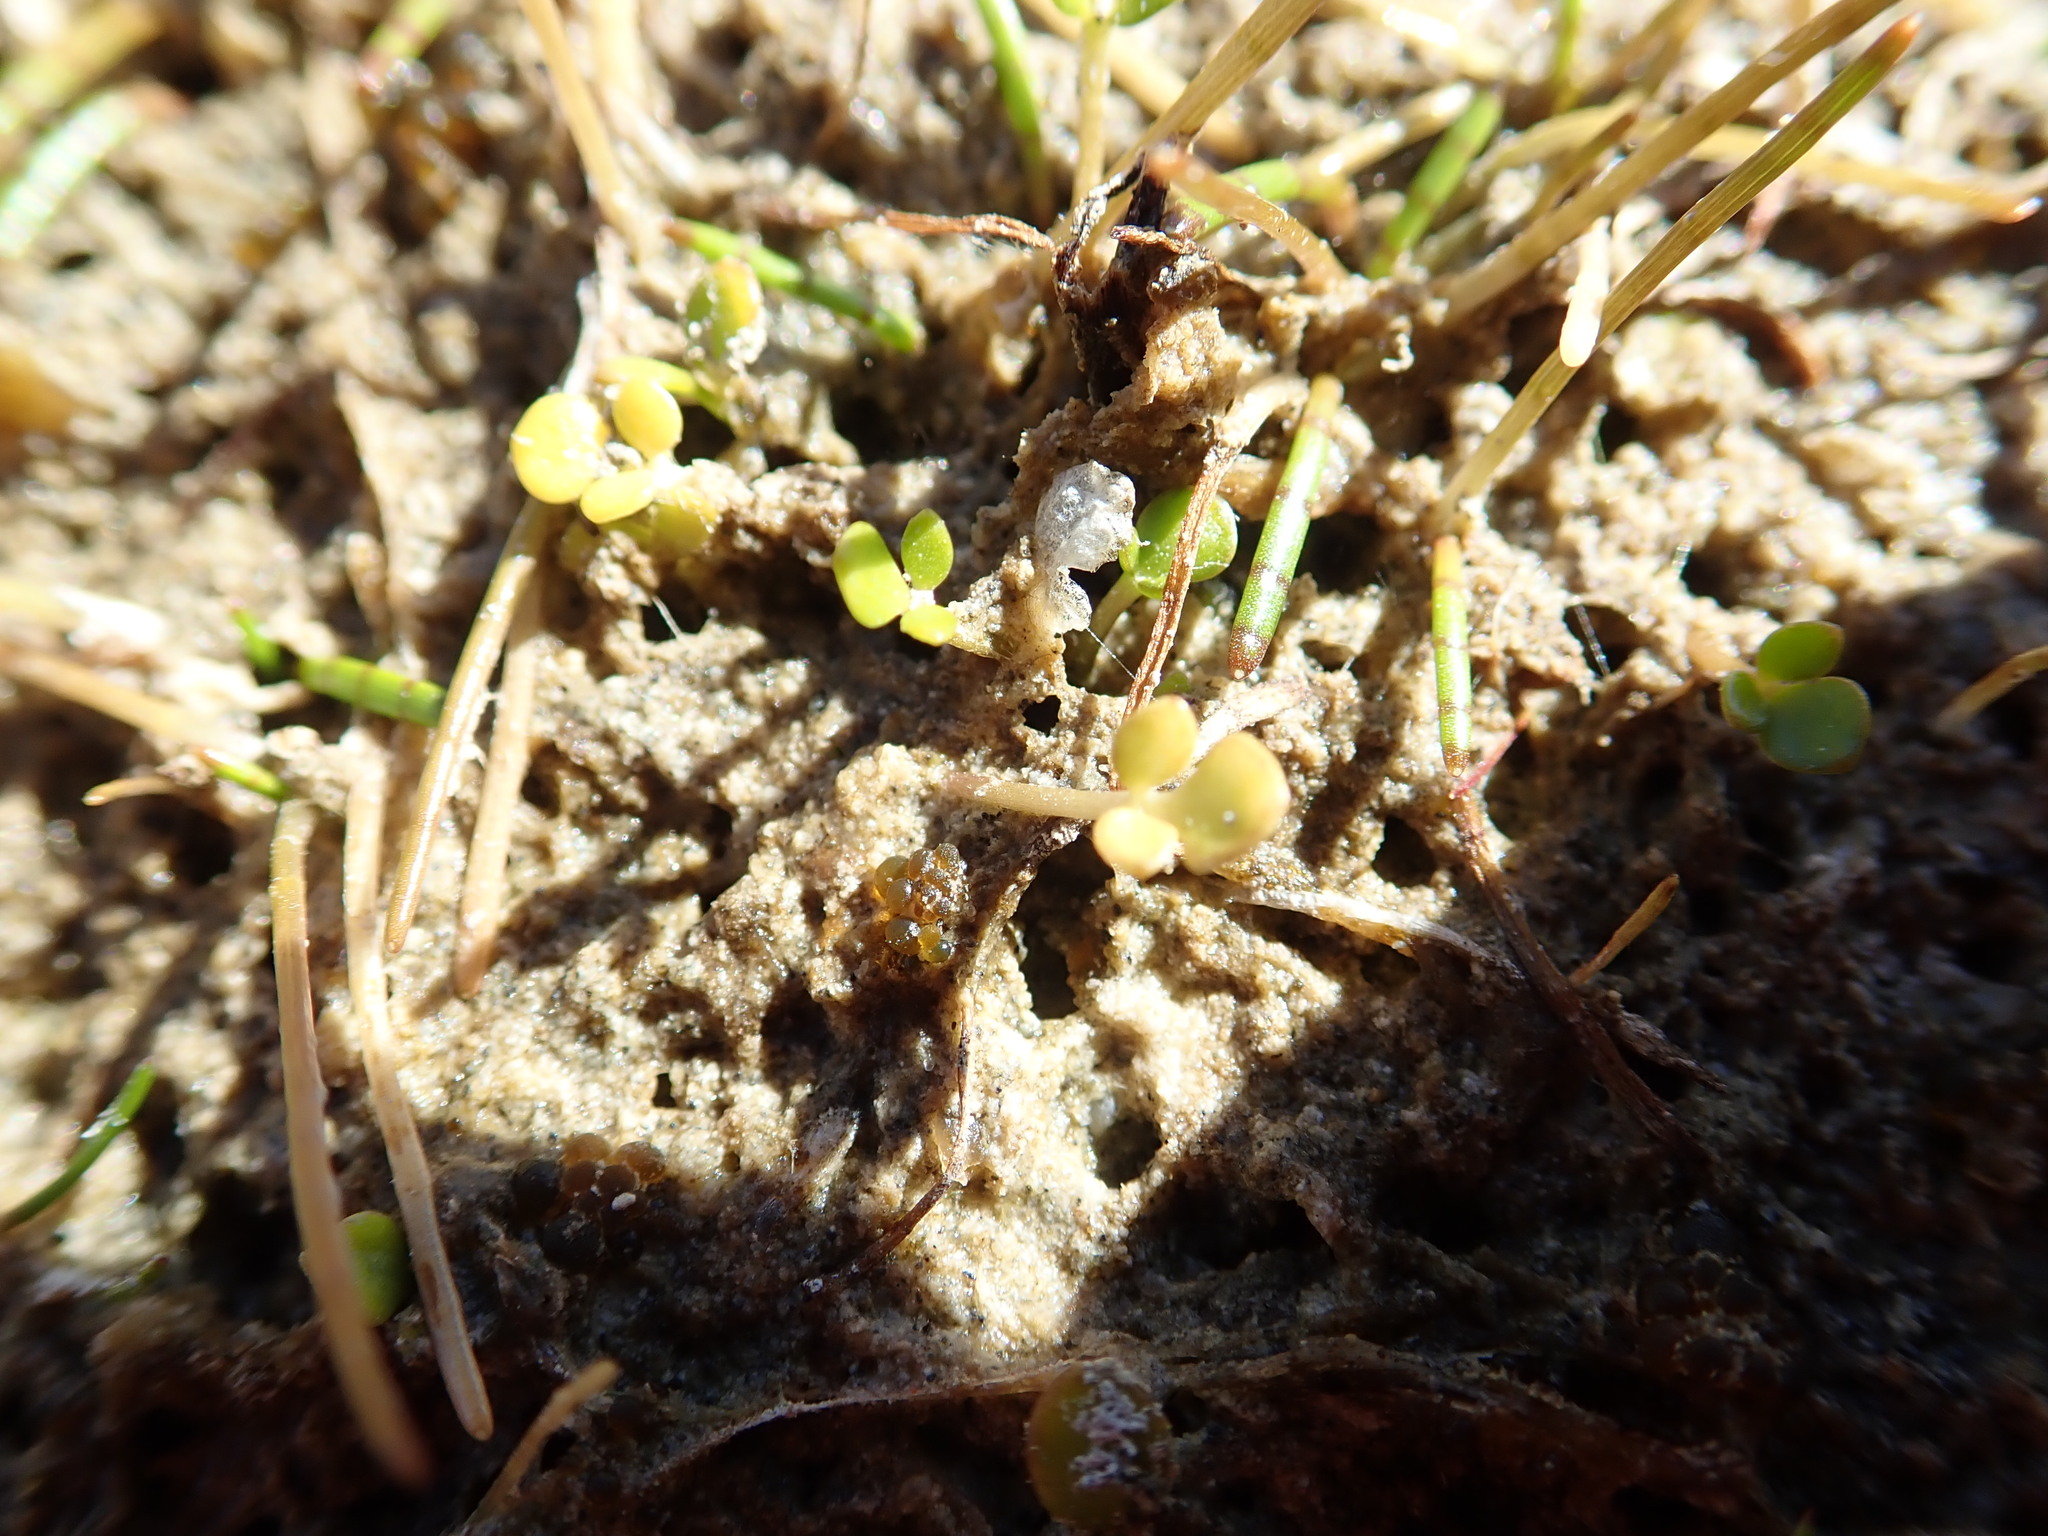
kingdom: Plantae
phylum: Tracheophyta
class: Magnoliopsida
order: Ranunculales
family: Ranunculaceae
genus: Ranunculus
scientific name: Ranunculus acaulis
